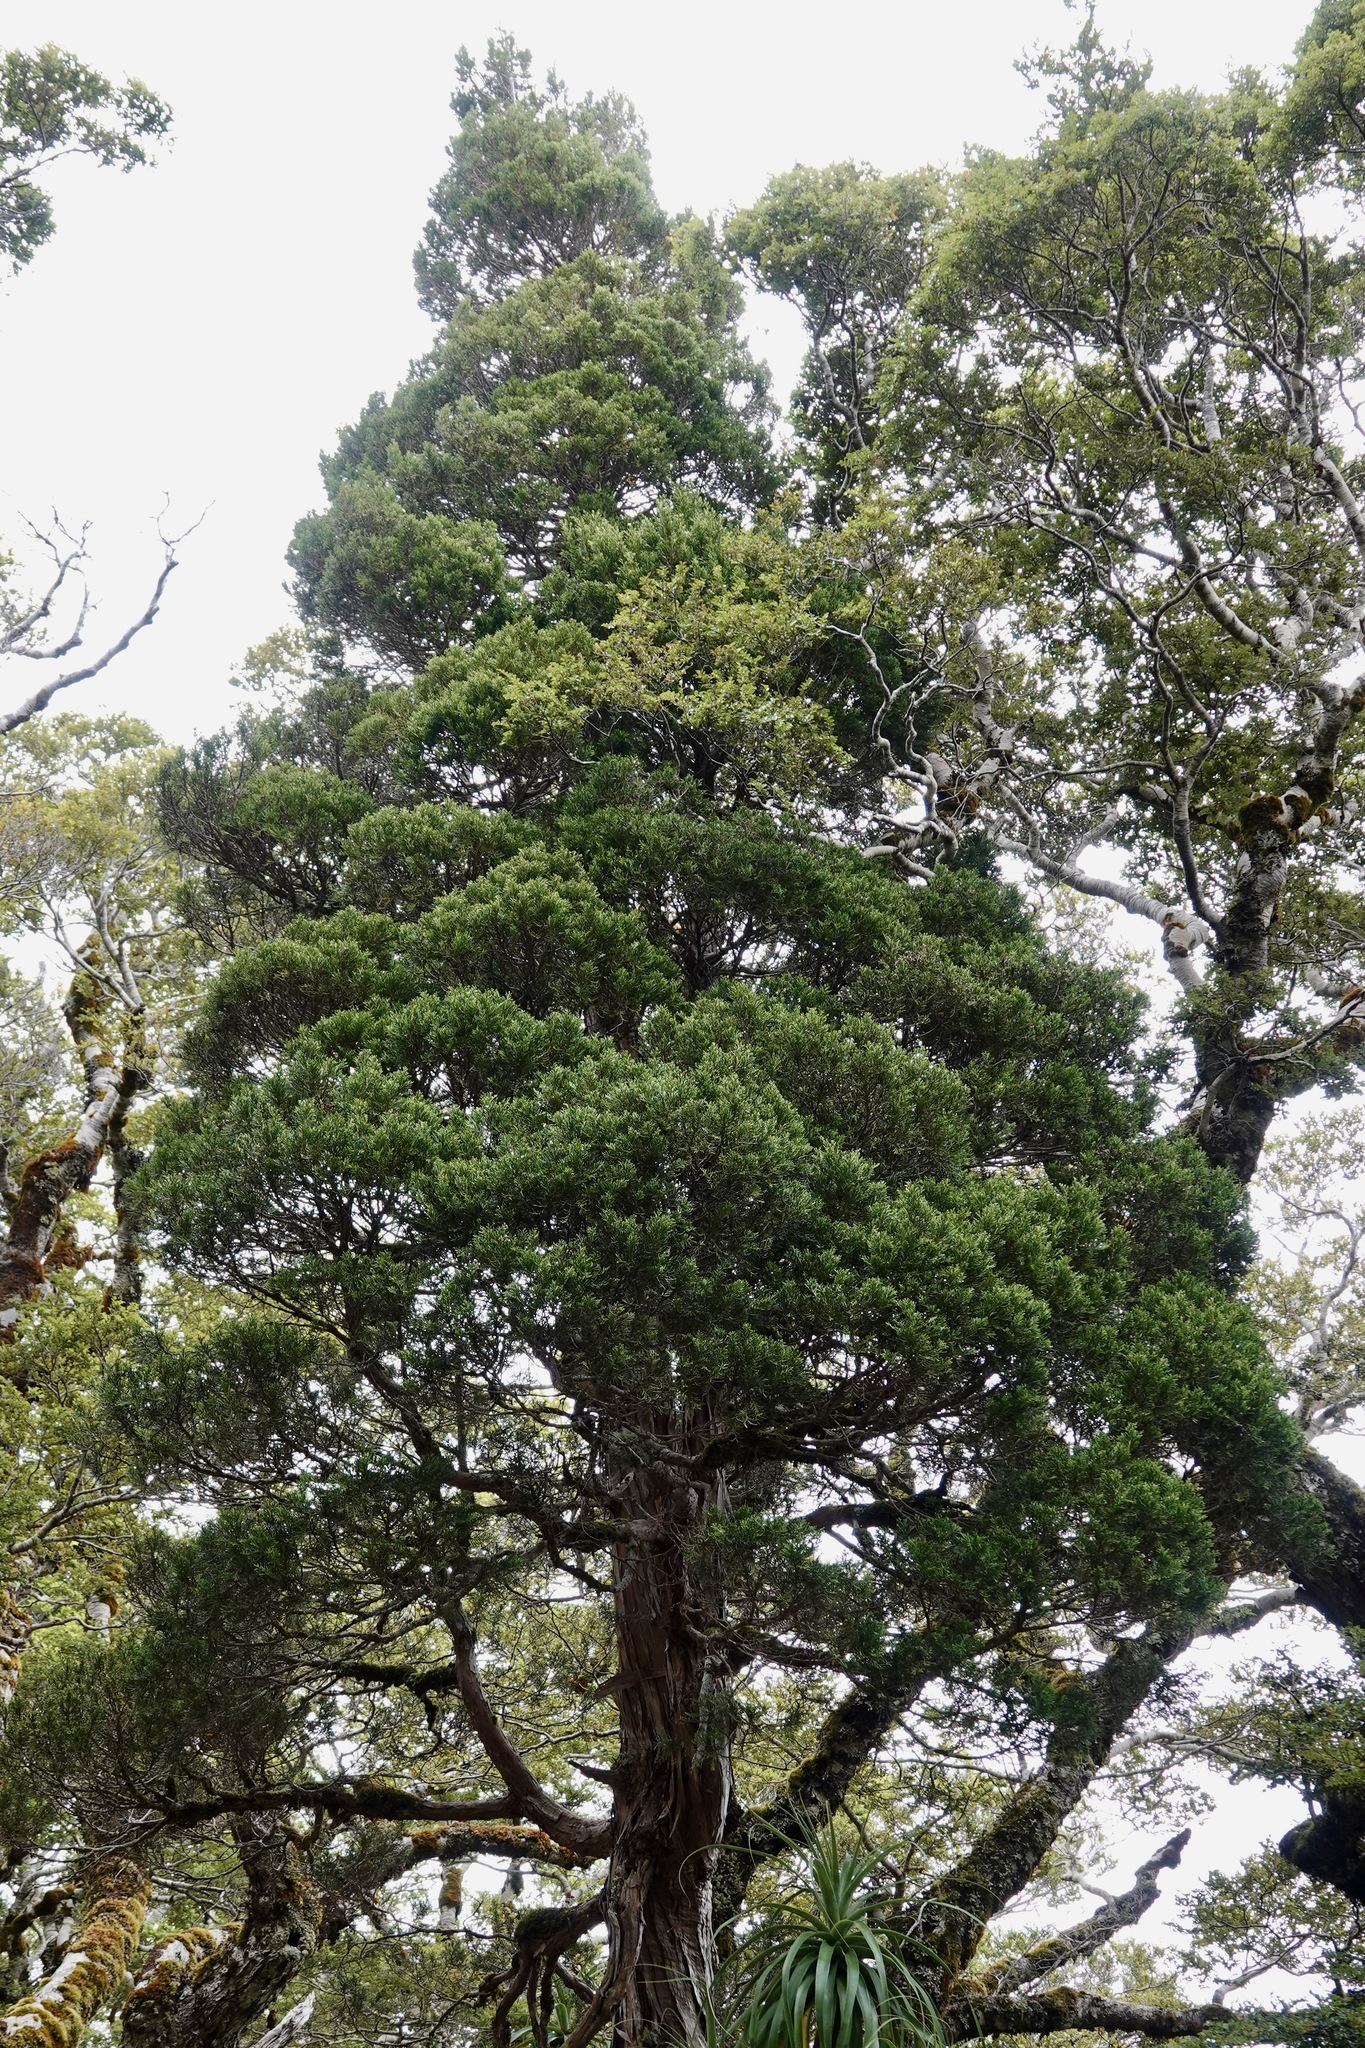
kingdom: Plantae
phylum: Tracheophyta
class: Pinopsida
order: Pinales
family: Cupressaceae
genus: Libocedrus
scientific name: Libocedrus bidwillii
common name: Cedar
